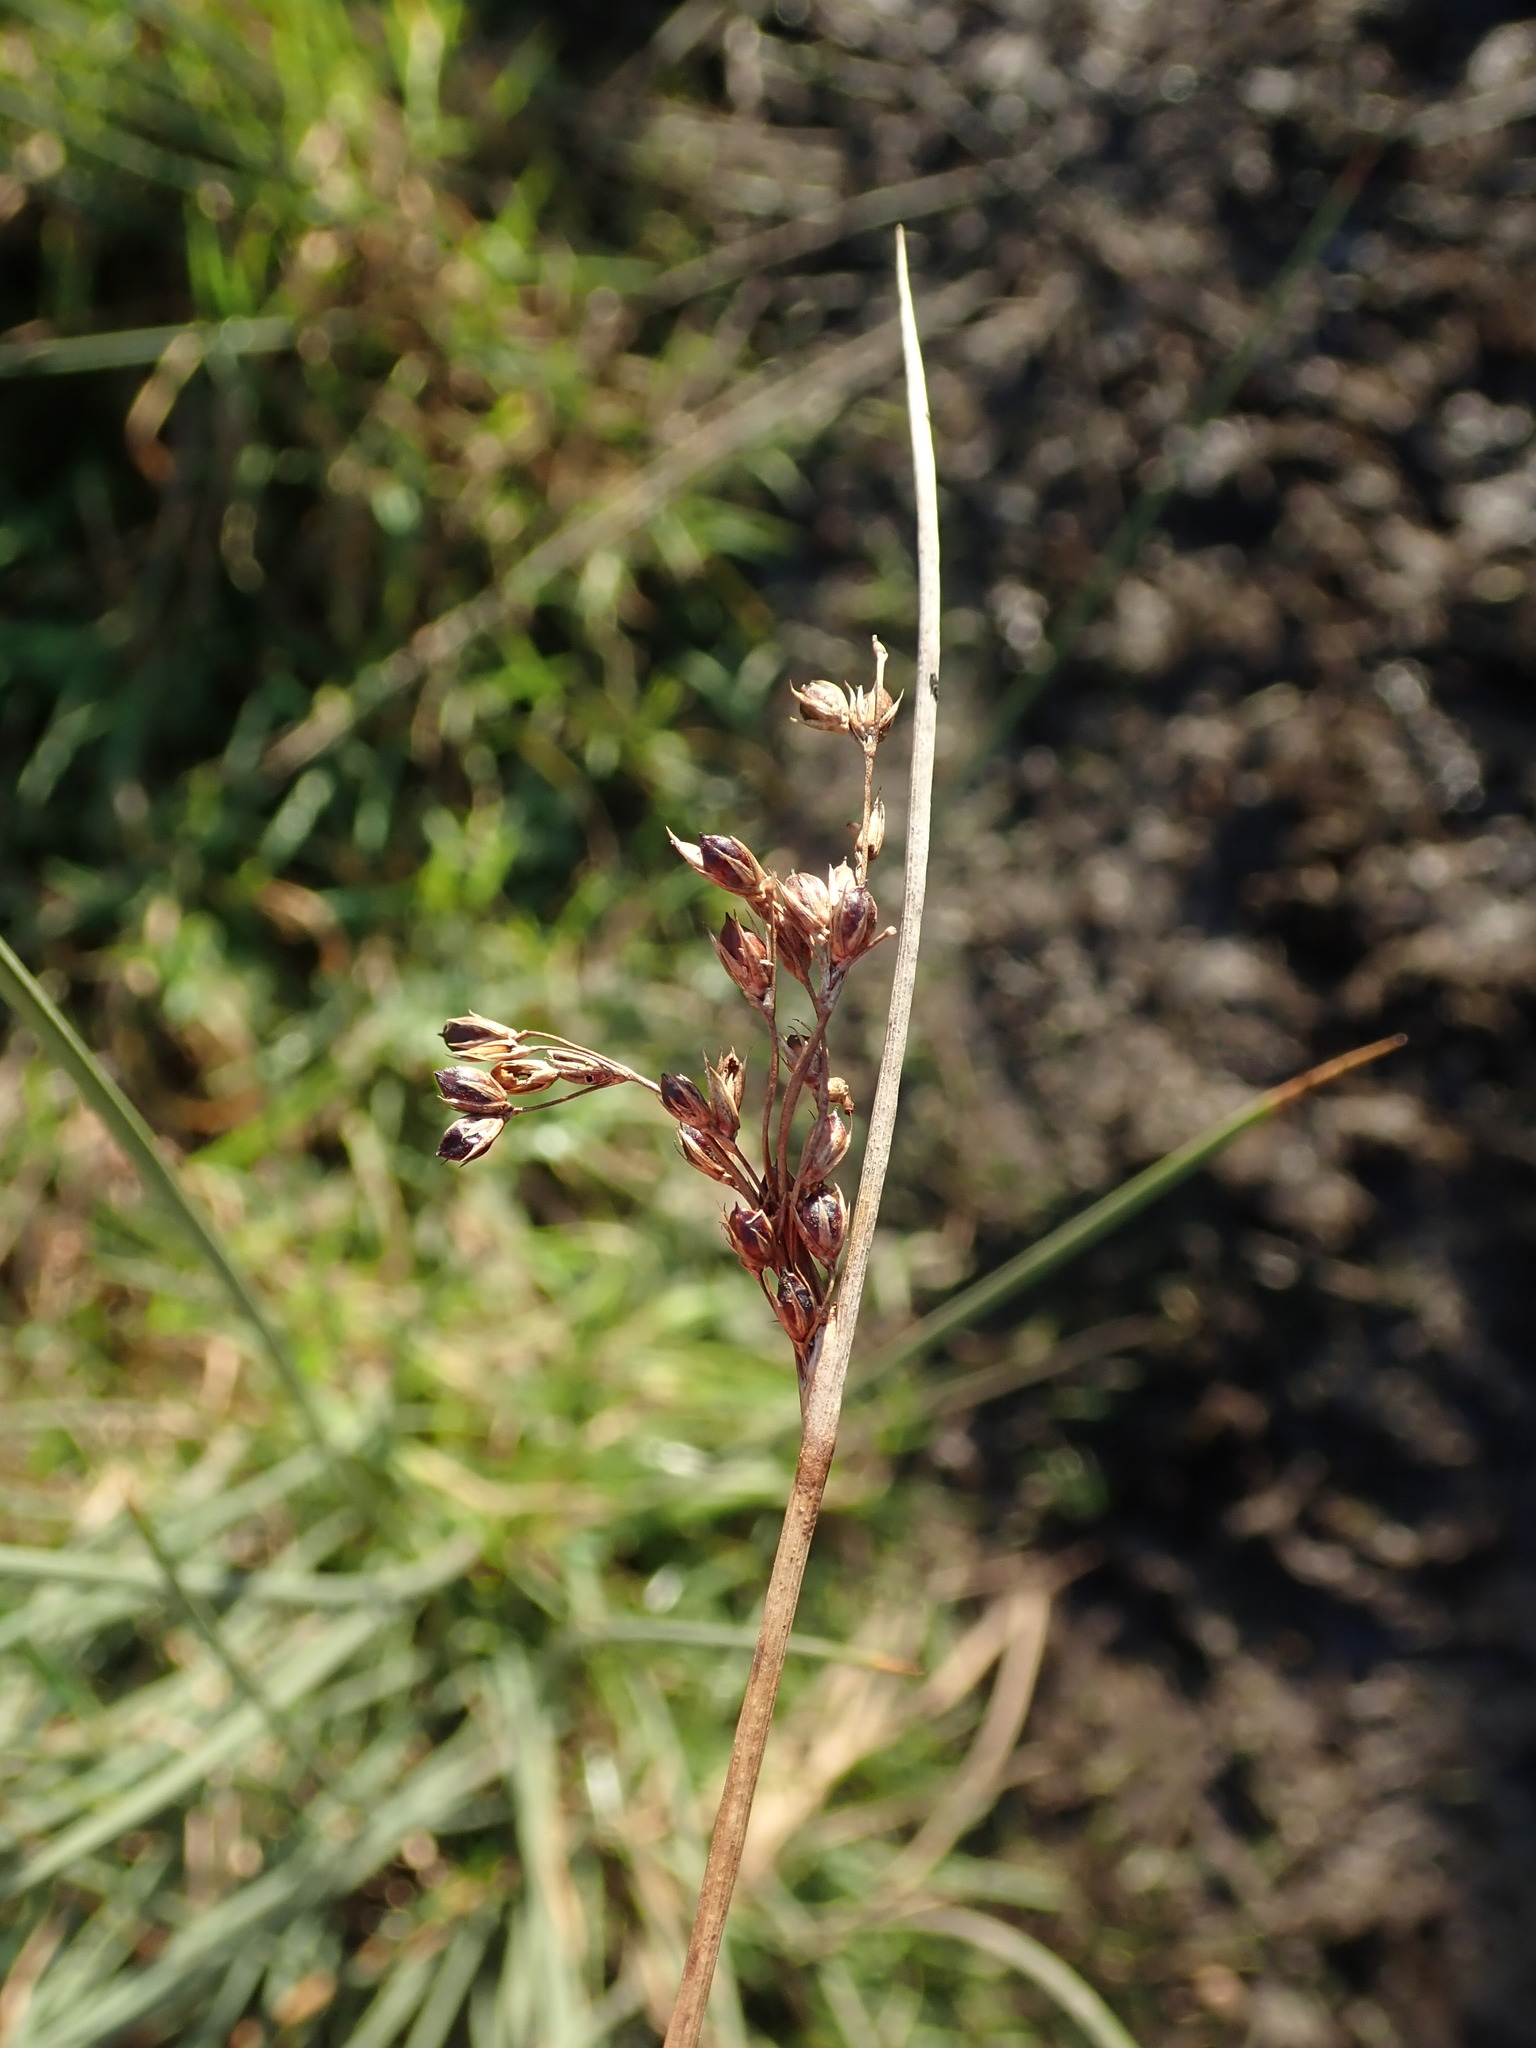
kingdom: Plantae
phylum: Tracheophyta
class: Liliopsida
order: Poales
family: Juncaceae
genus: Juncus
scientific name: Juncus inflexus
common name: Hard rush
